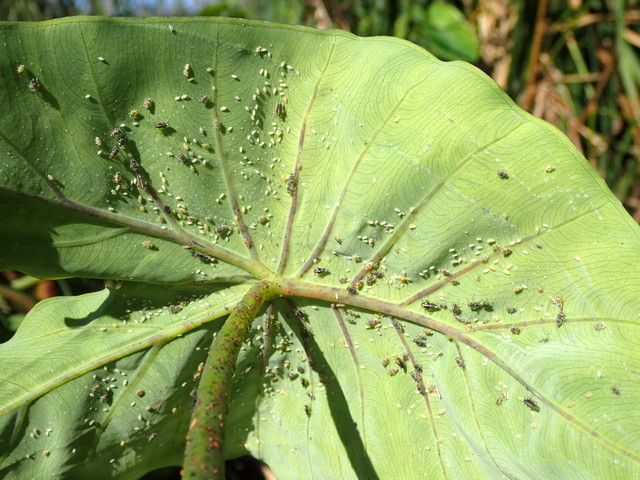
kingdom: Animalia
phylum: Arthropoda
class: Insecta
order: Hemiptera
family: Delphacidae
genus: Tarophagus
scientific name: Tarophagus colocasiae
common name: Taro planthopper
